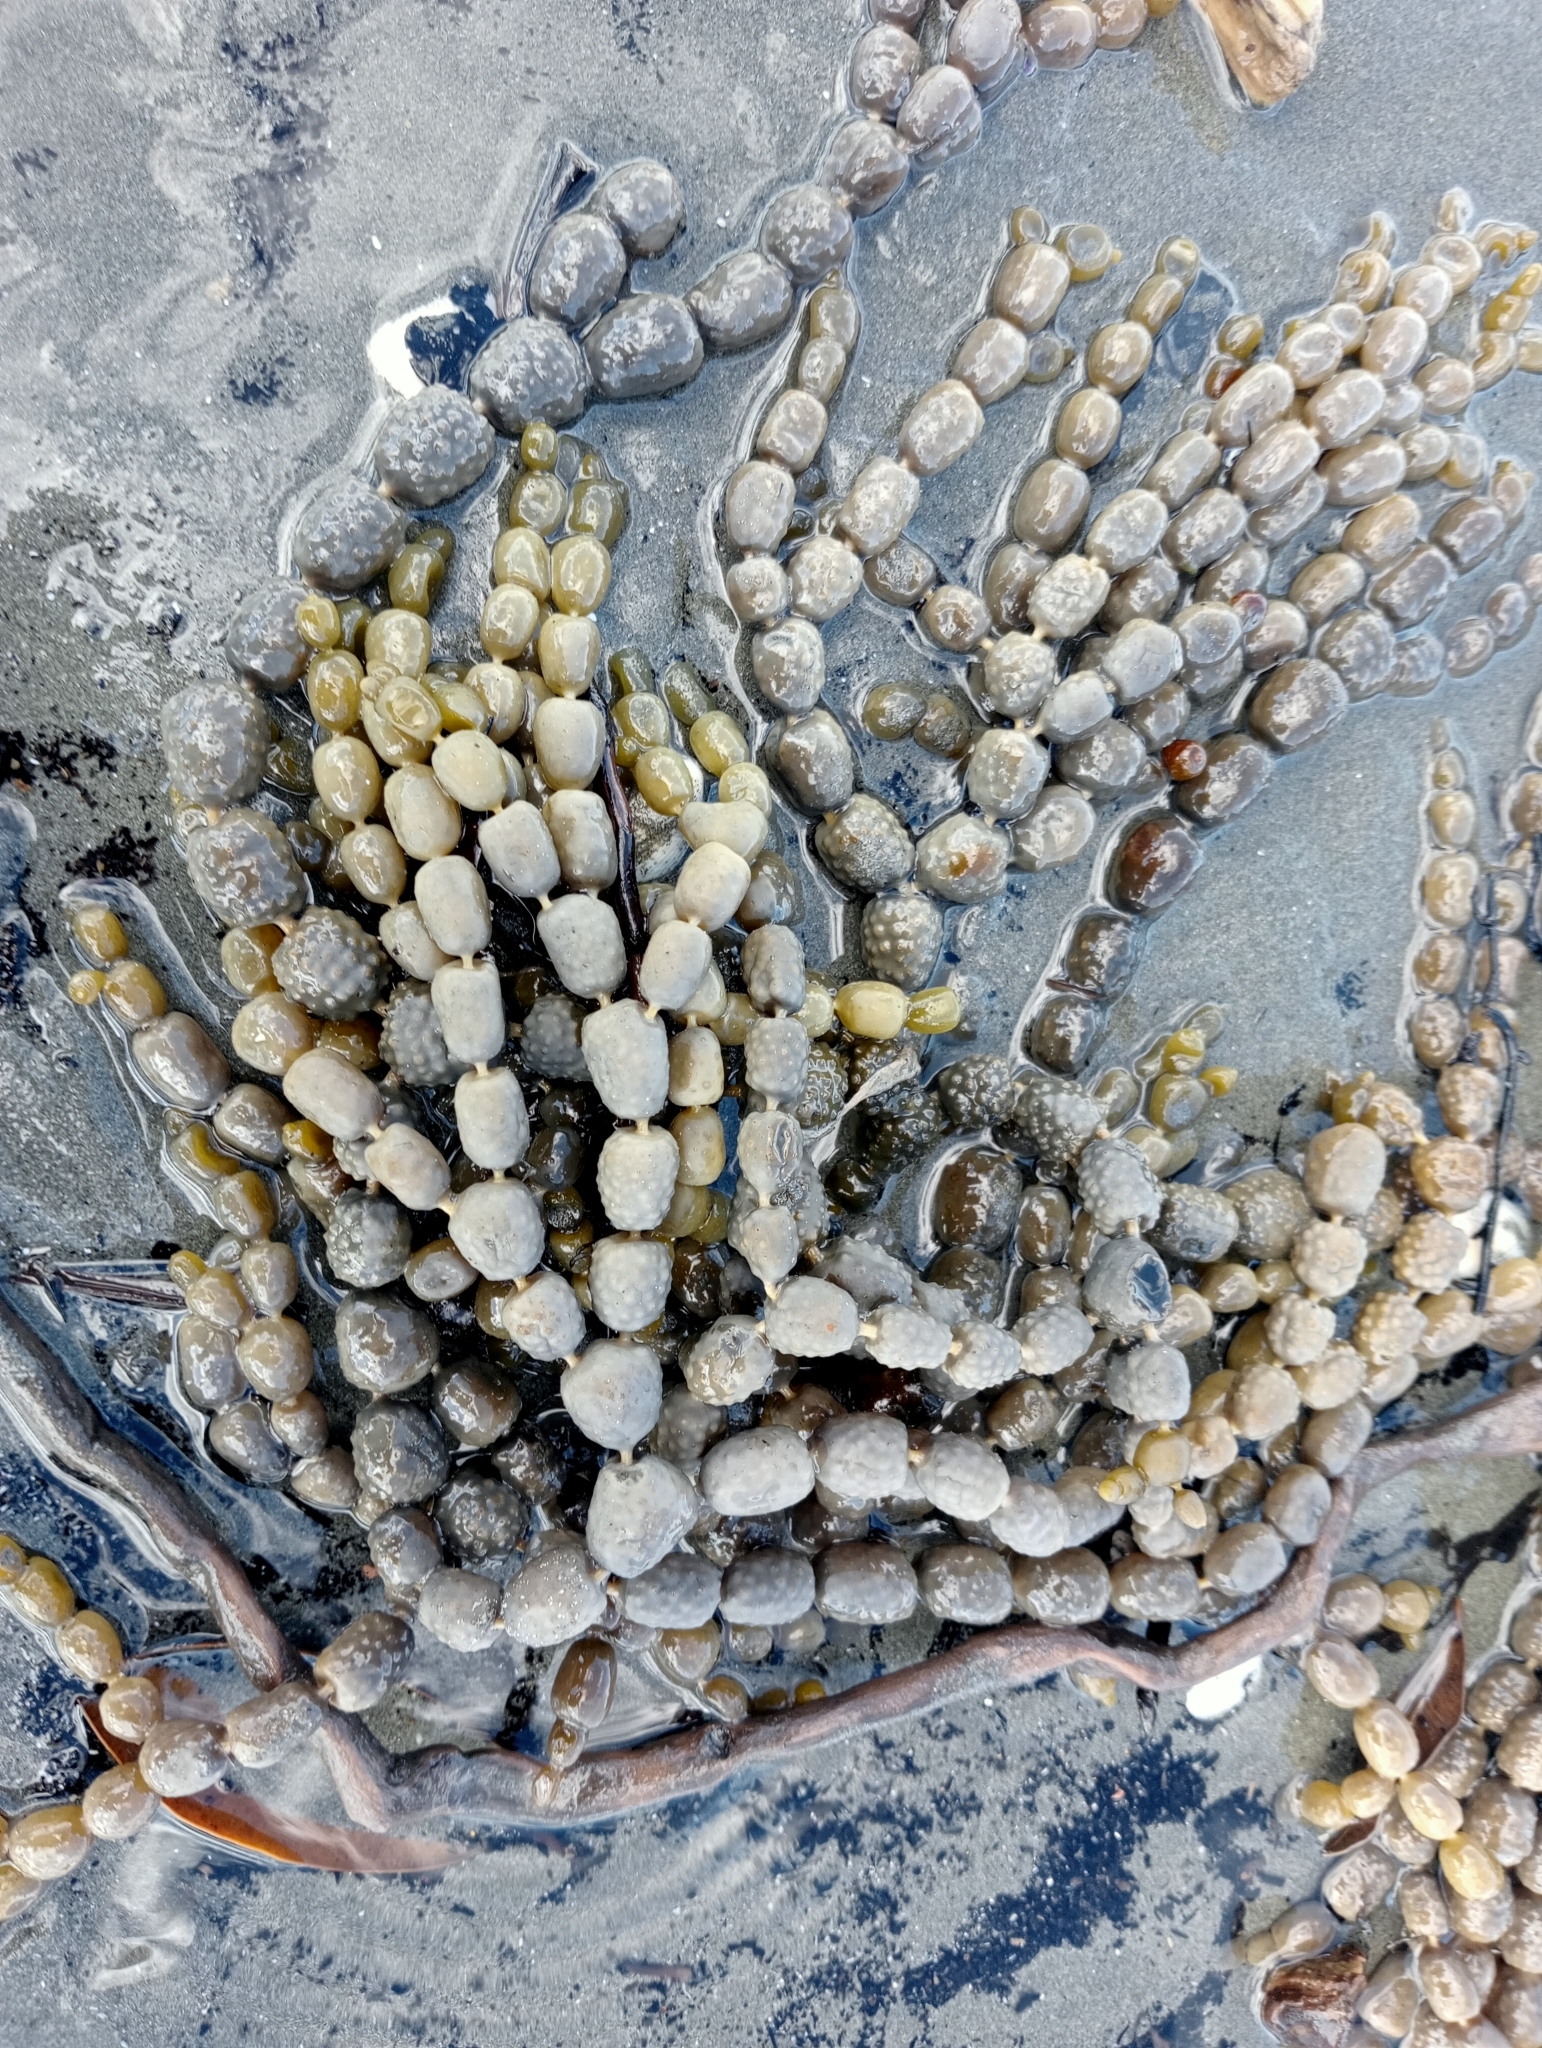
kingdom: Chromista
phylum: Ochrophyta
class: Phaeophyceae
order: Fucales
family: Hormosiraceae
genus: Hormosira
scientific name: Hormosira banksii
